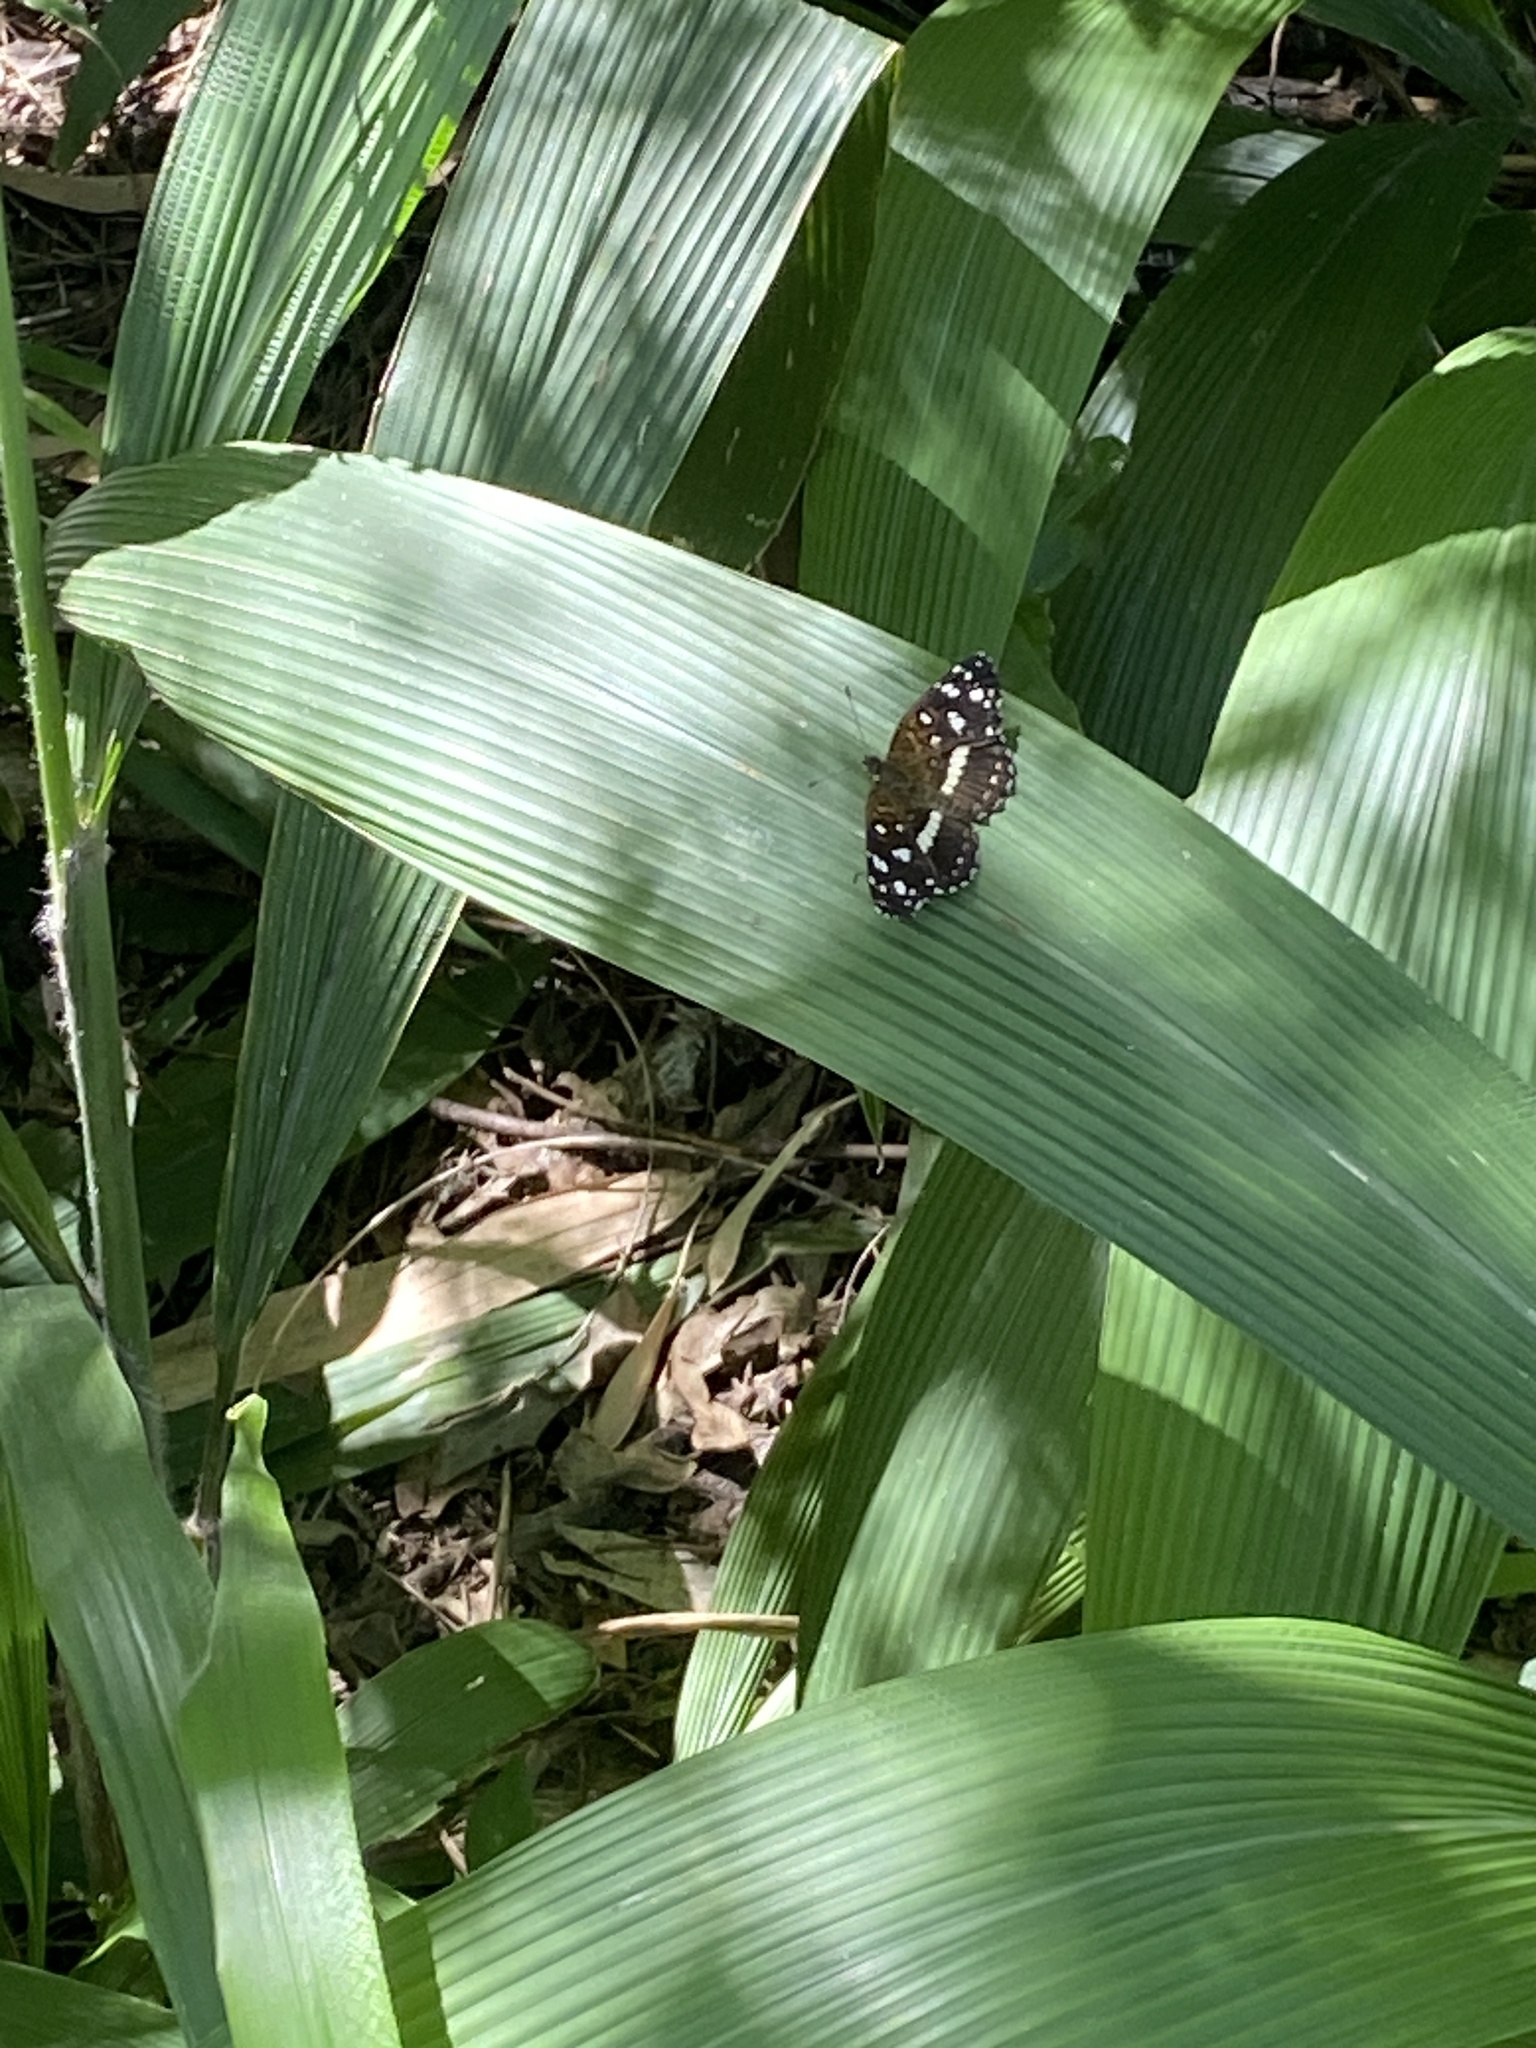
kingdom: Animalia
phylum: Arthropoda
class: Insecta
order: Lepidoptera
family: Nymphalidae
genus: Ortilia
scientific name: Ortilia ithra
